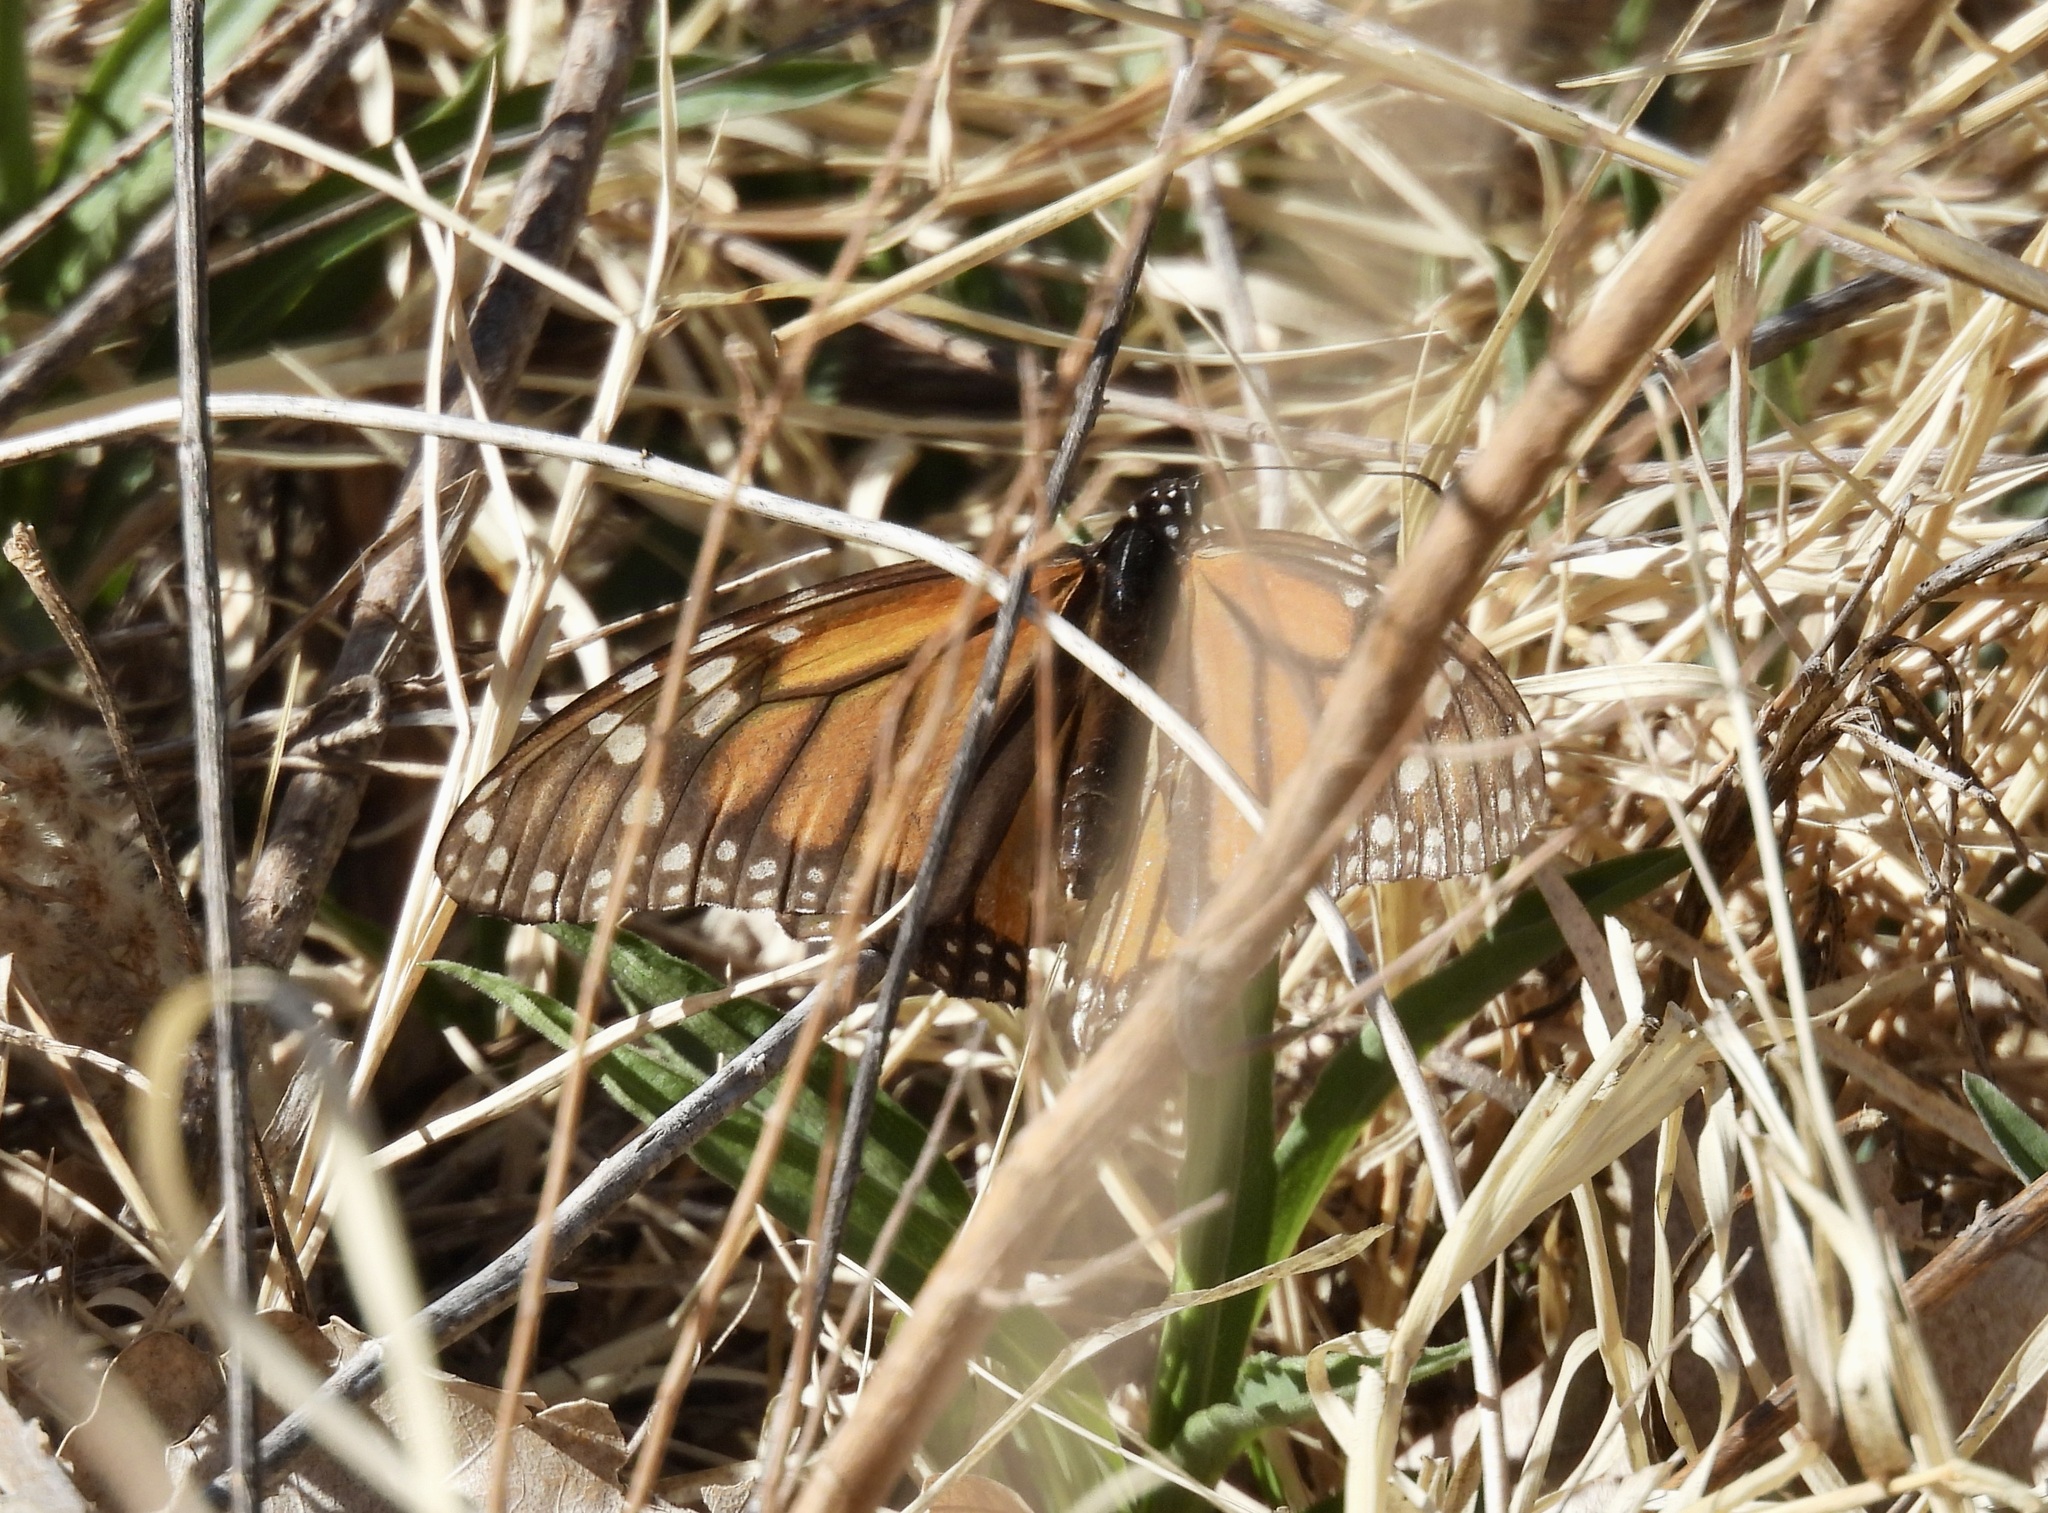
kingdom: Animalia
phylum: Arthropoda
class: Insecta
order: Lepidoptera
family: Nymphalidae
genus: Danaus
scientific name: Danaus plexippus
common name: Monarch
